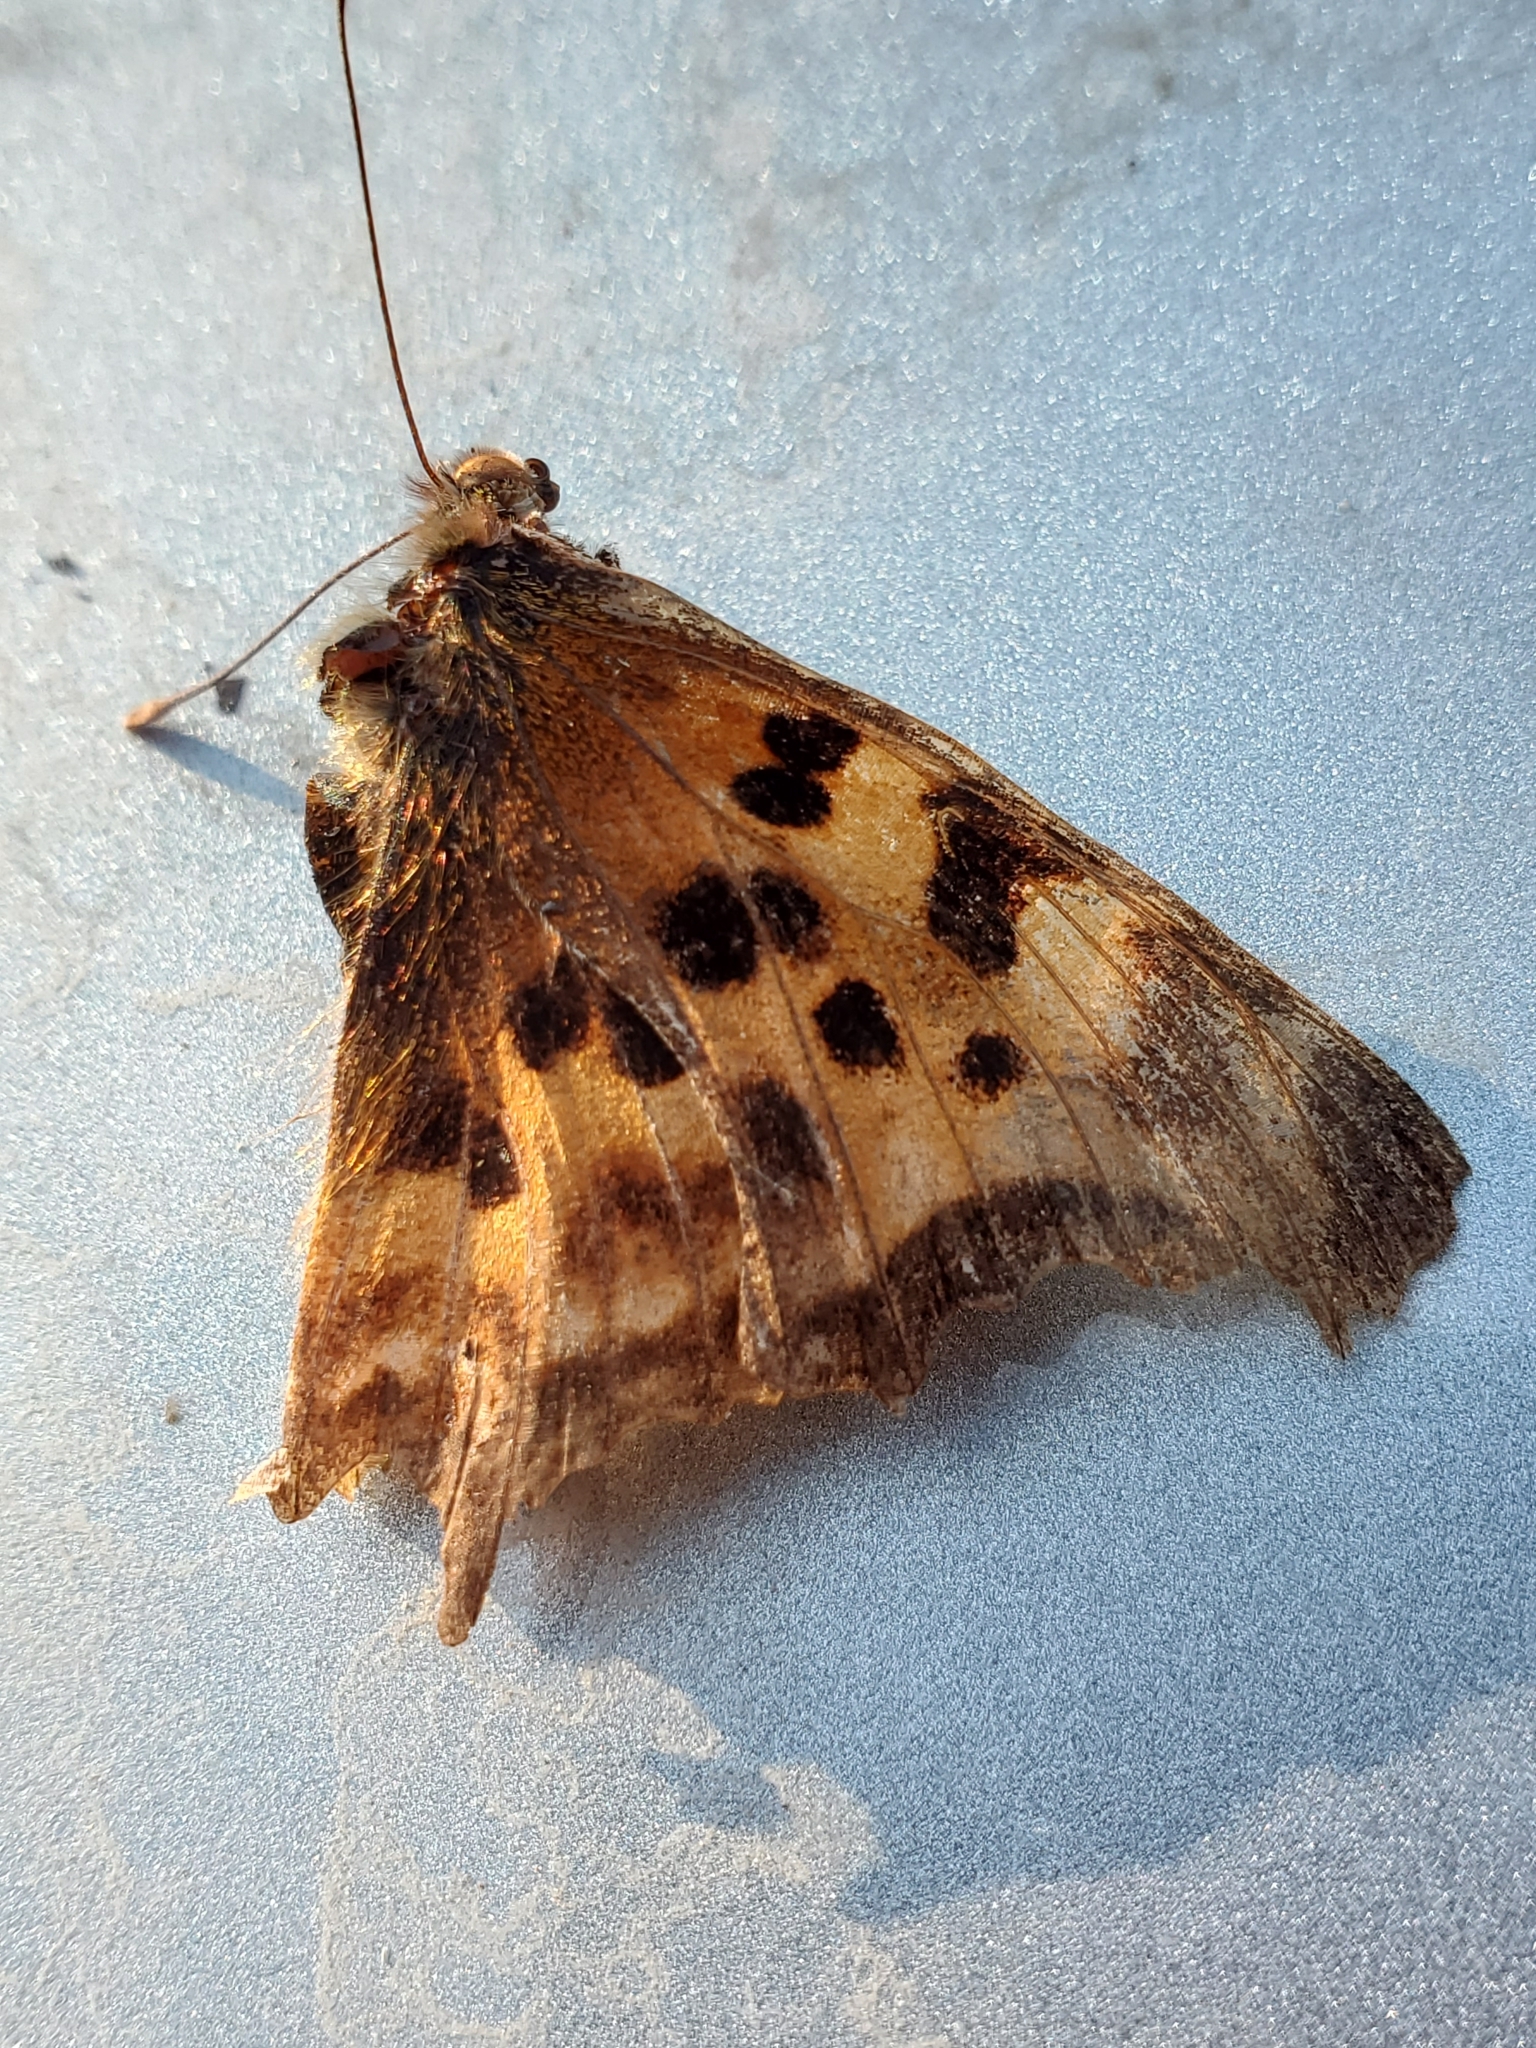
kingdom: Animalia
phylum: Arthropoda
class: Insecta
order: Lepidoptera
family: Nymphalidae
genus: Polygonia
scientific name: Polygonia satyrus
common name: Satyr angle wing
